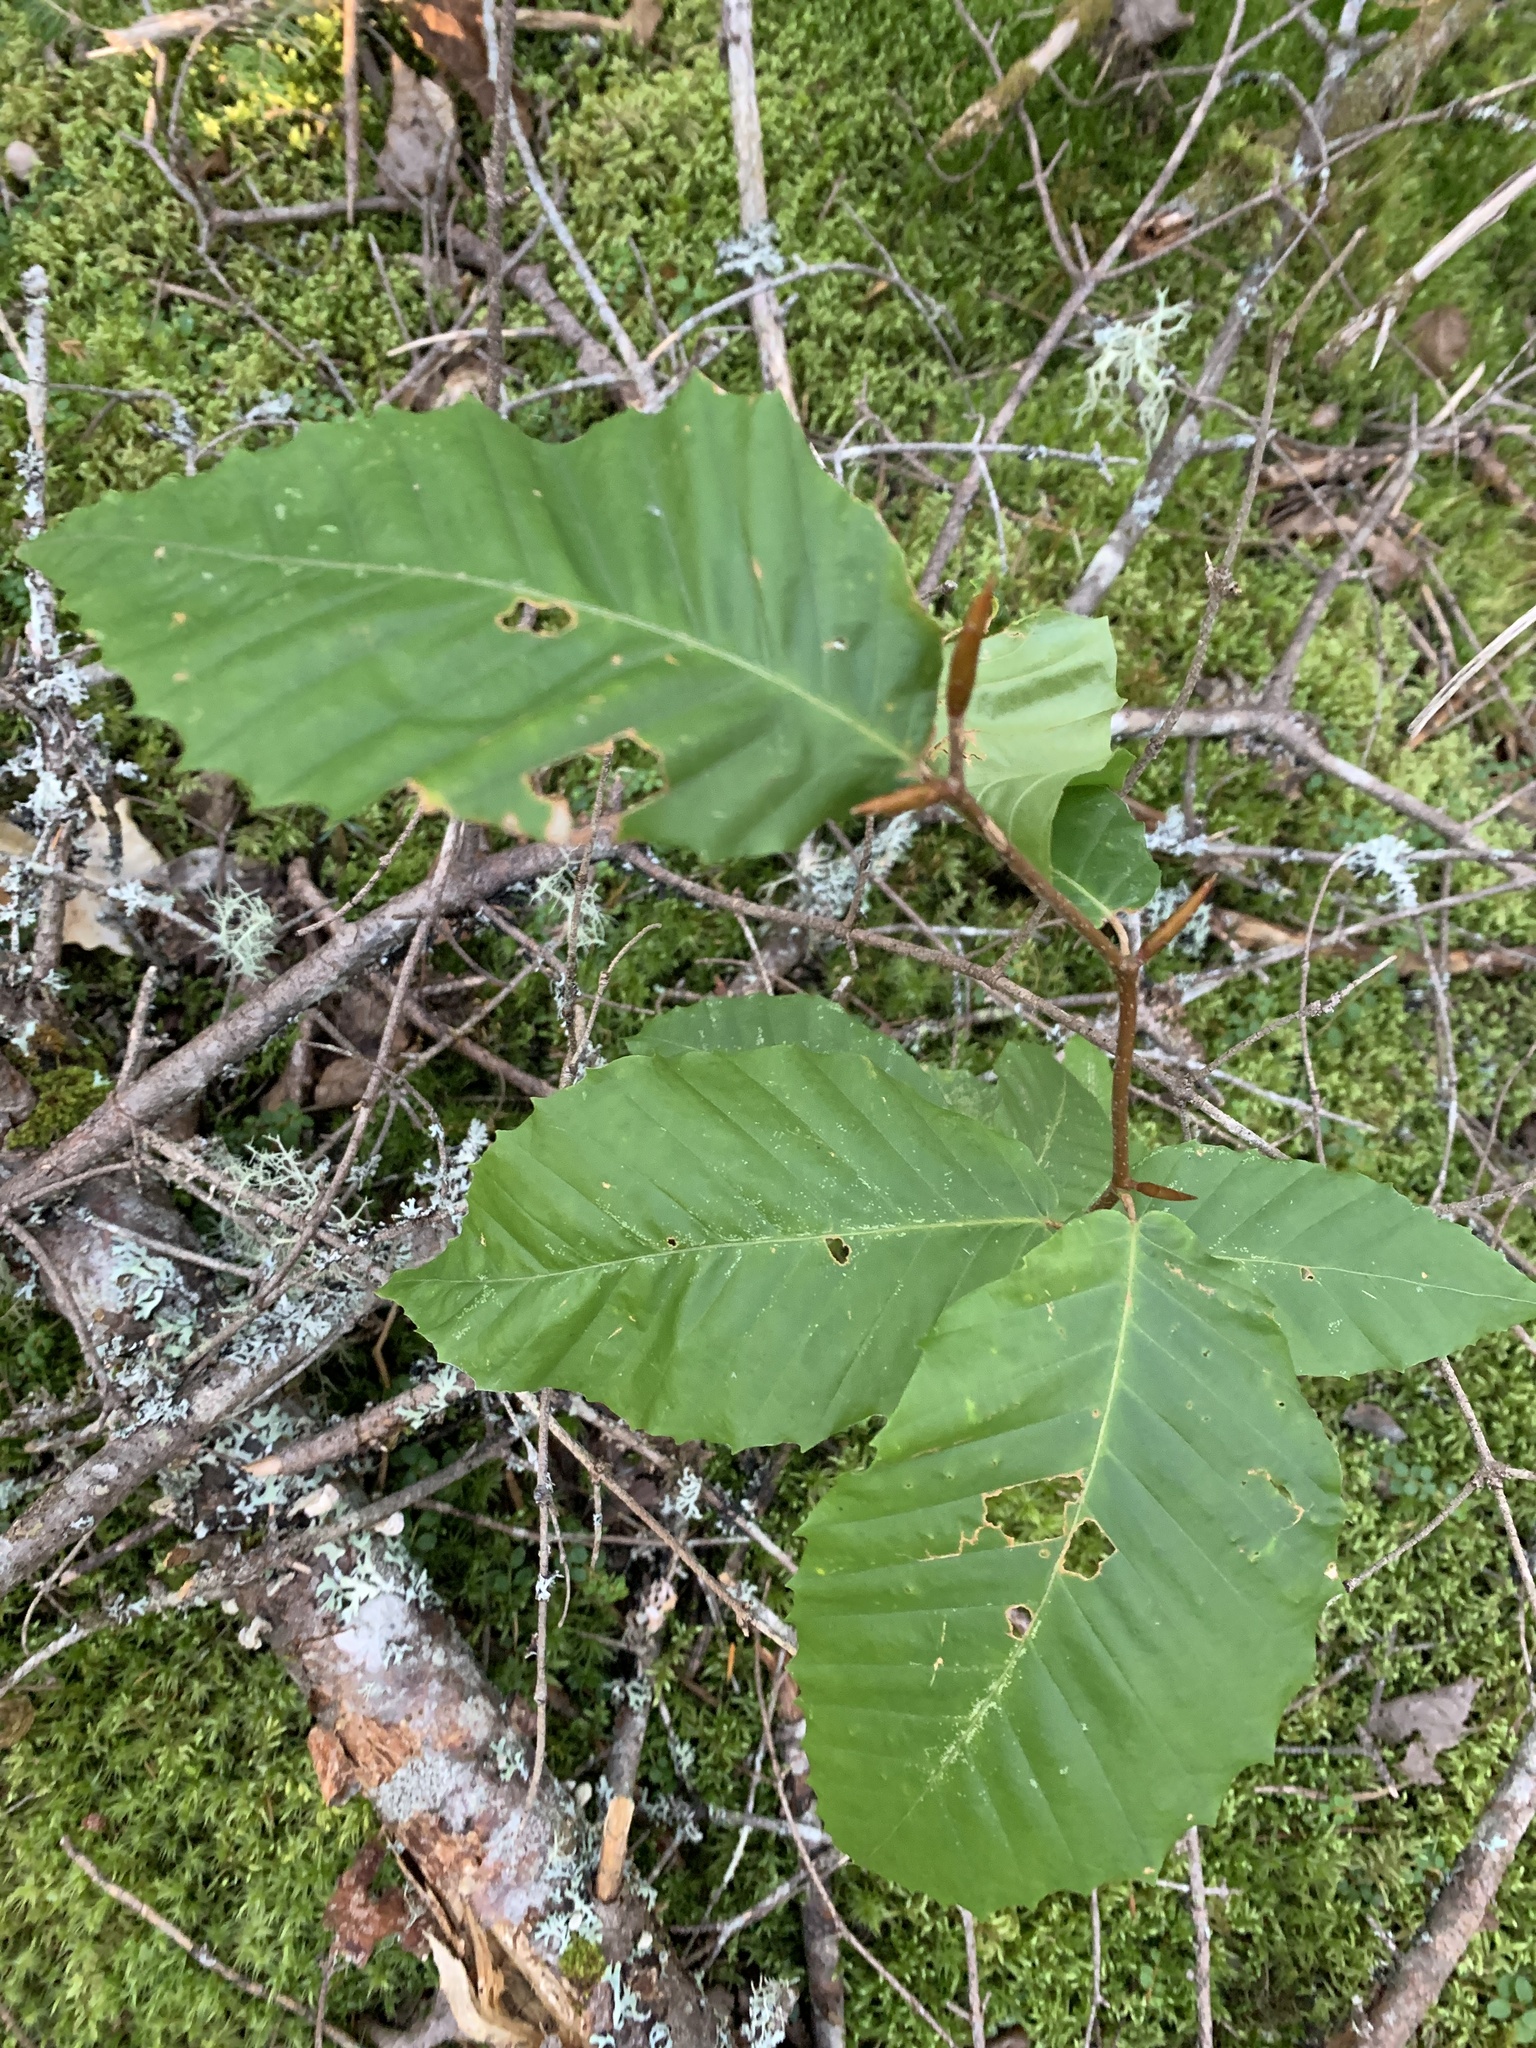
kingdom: Plantae
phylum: Tracheophyta
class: Magnoliopsida
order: Fagales
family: Fagaceae
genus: Fagus
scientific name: Fagus grandifolia
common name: American beech
